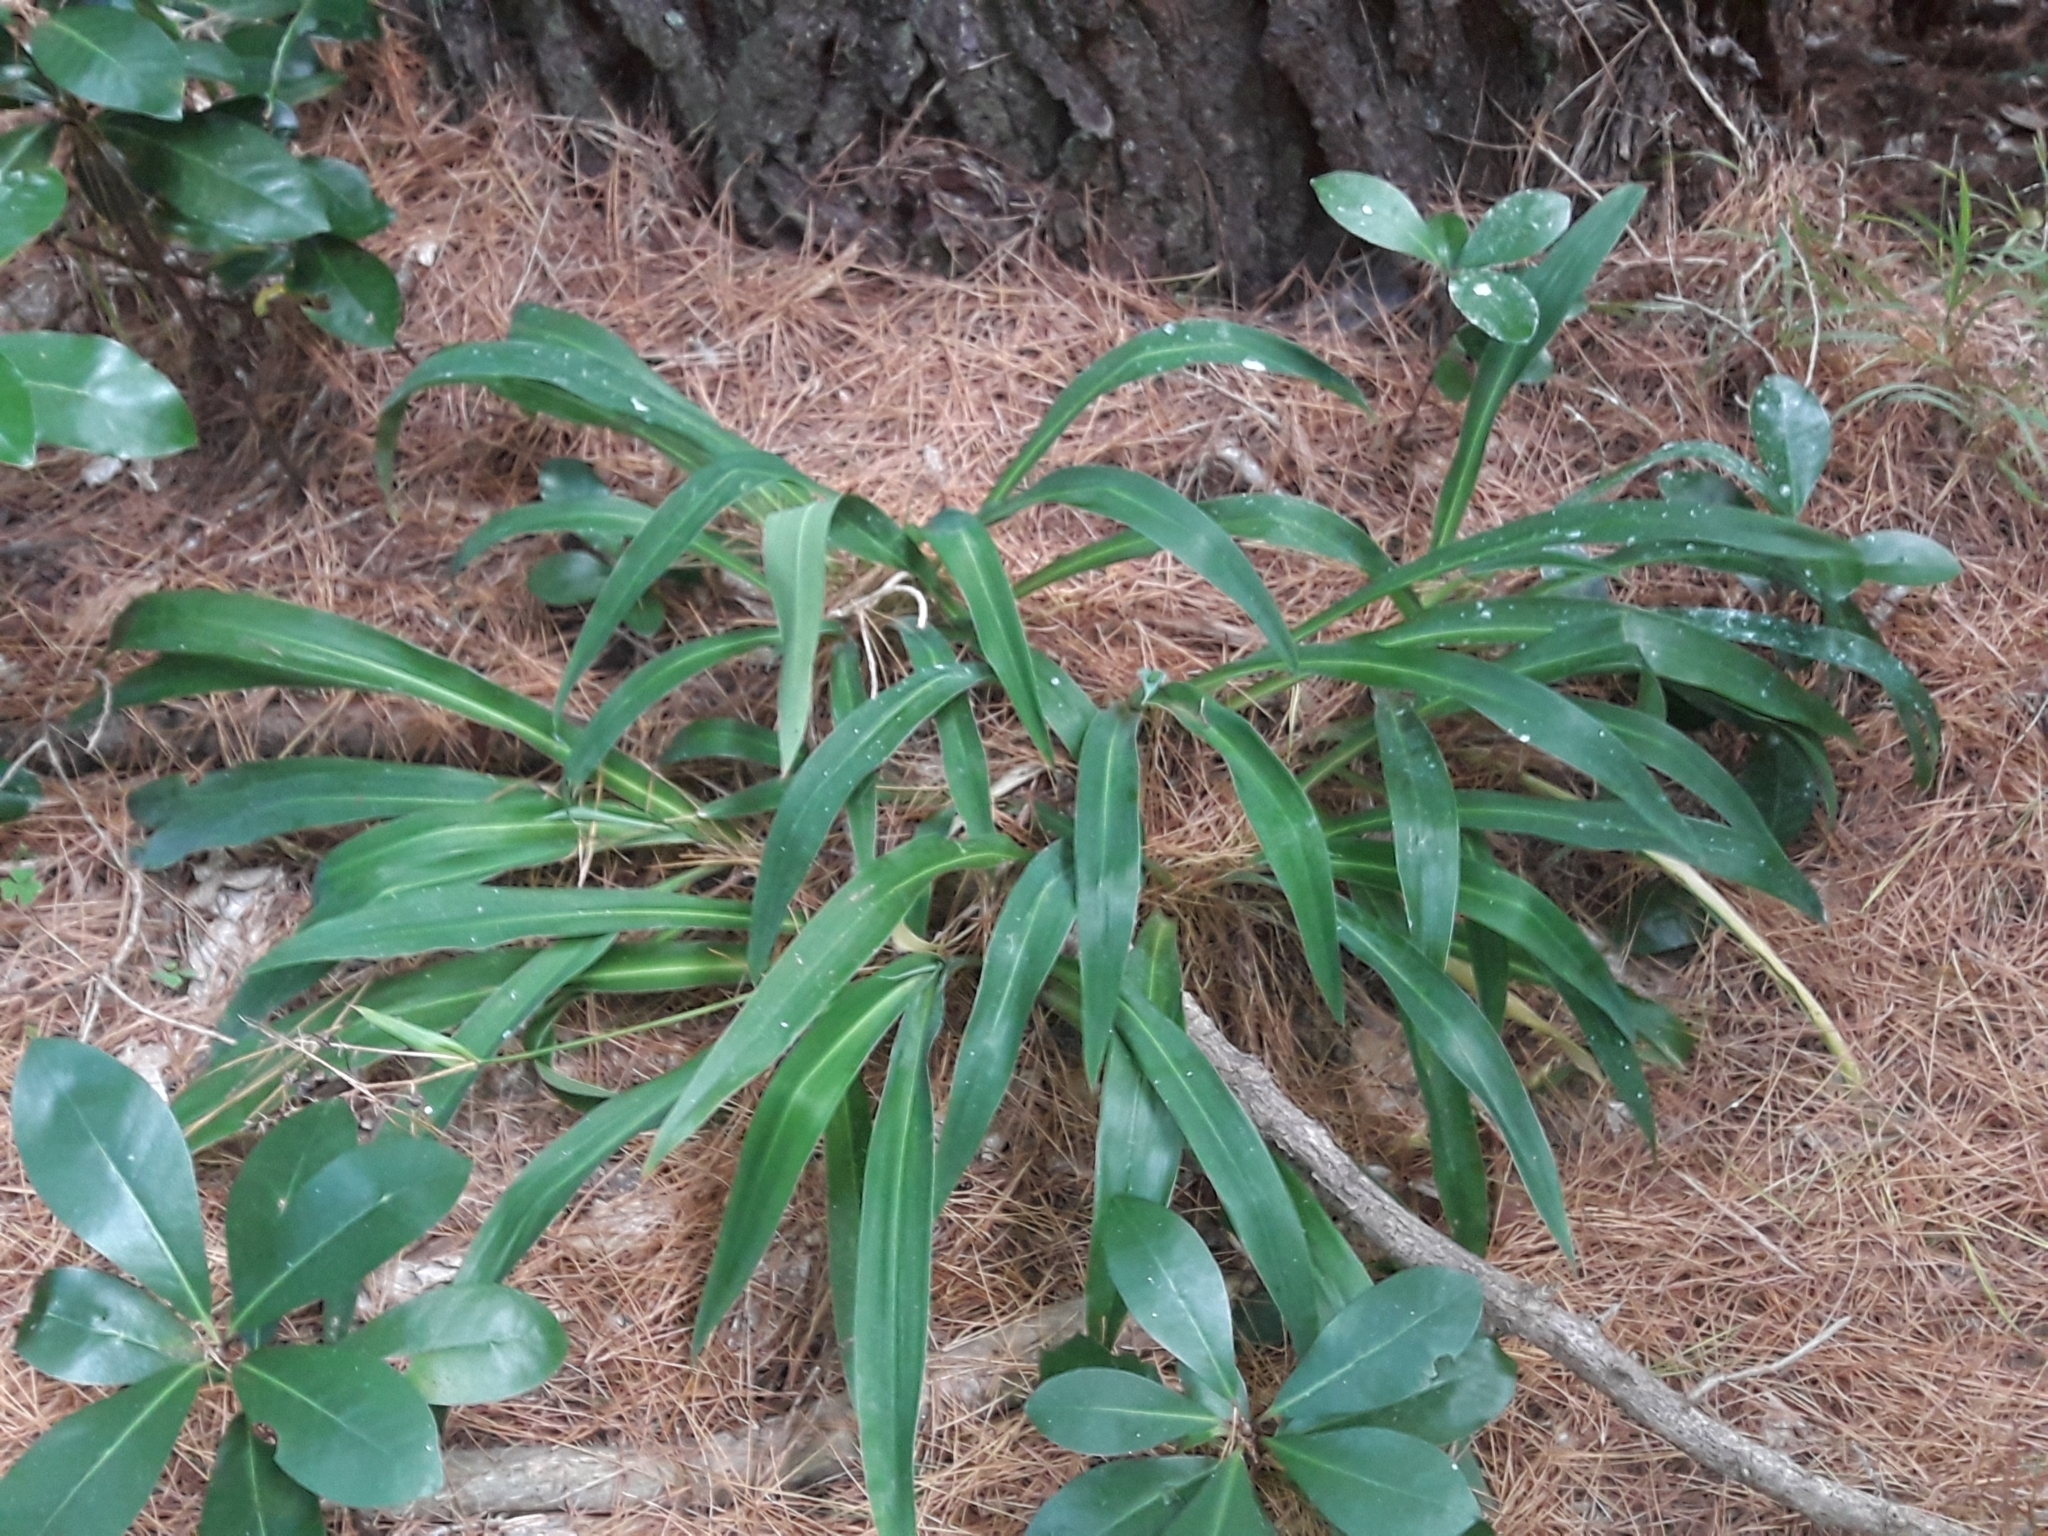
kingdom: Plantae
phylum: Tracheophyta
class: Liliopsida
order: Asparagales
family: Asparagaceae
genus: Arthropodium
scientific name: Arthropodium cirratum
